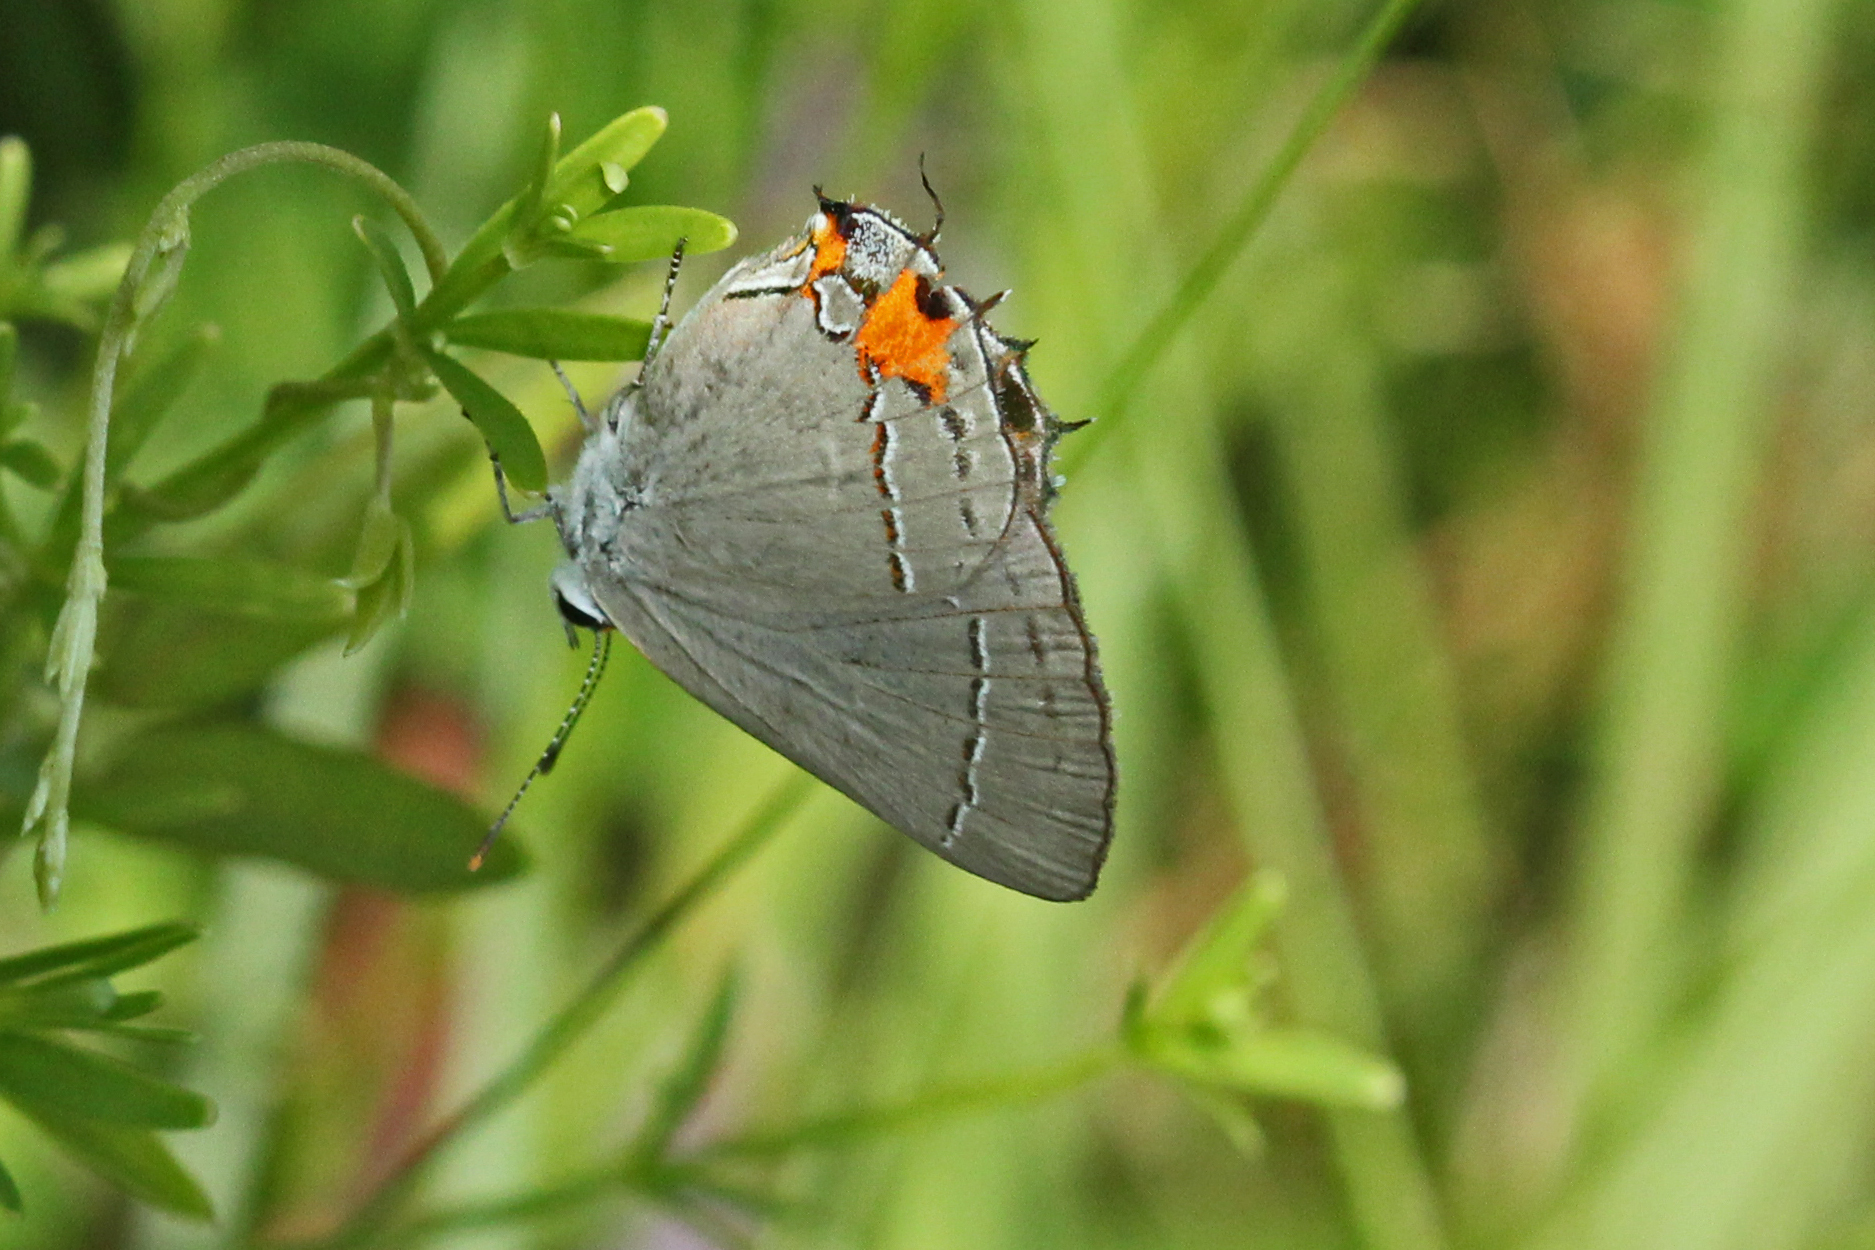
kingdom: Animalia
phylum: Arthropoda
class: Insecta
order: Lepidoptera
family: Lycaenidae
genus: Strymon
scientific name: Strymon melinus
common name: Gray hairstreak
